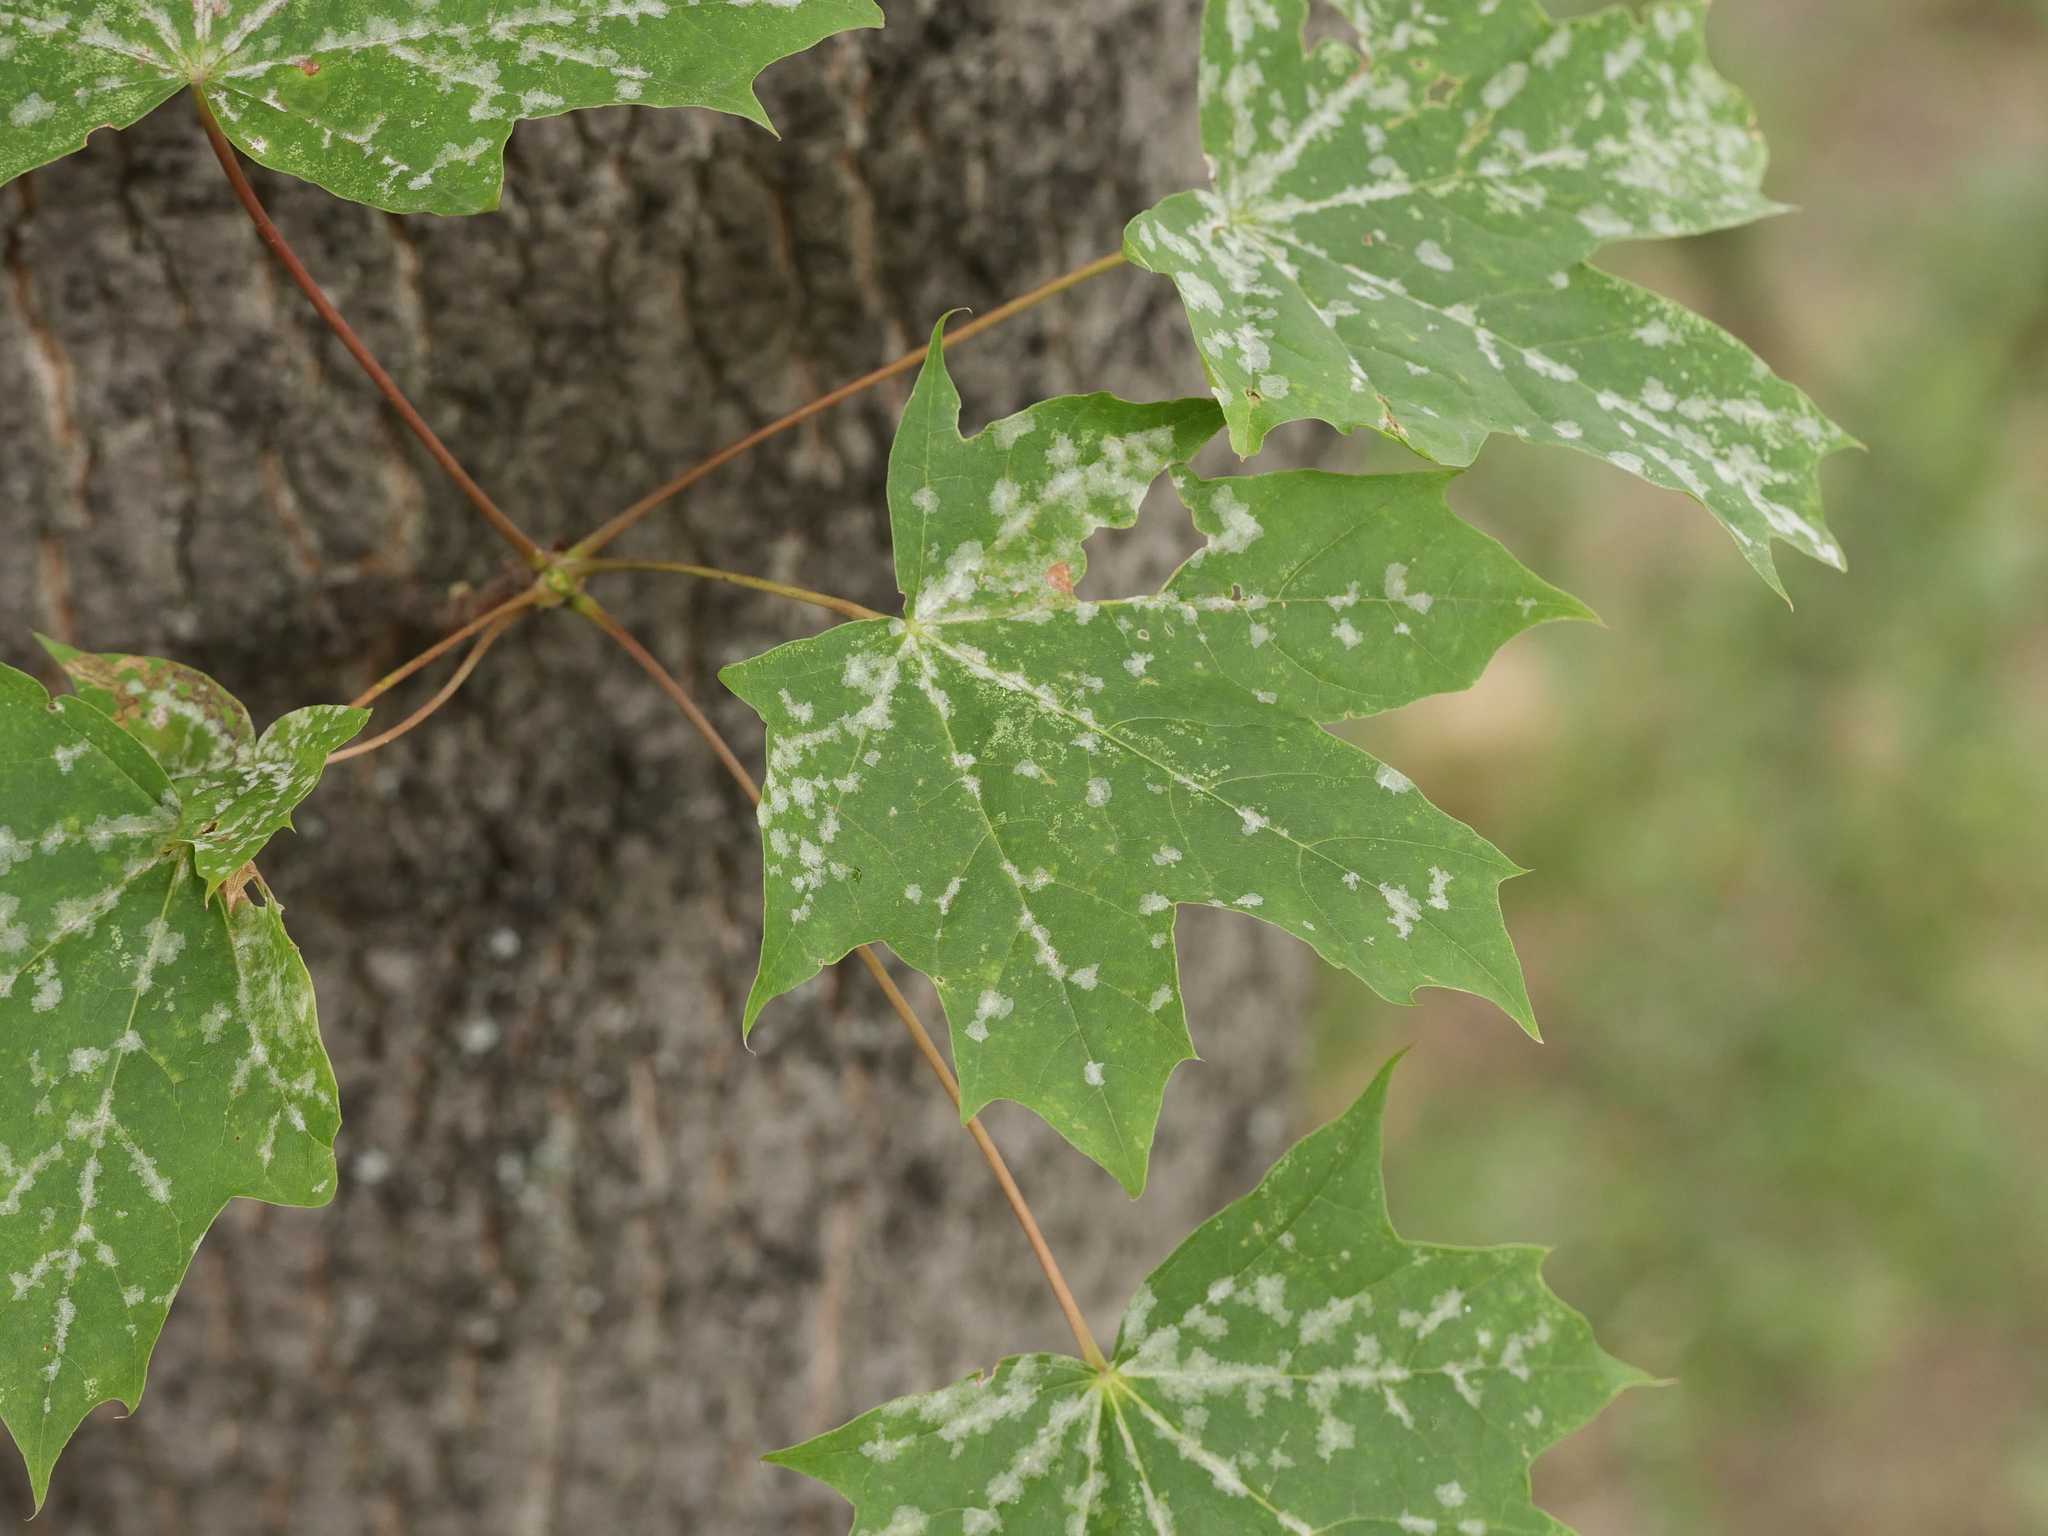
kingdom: Fungi
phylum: Ascomycota
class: Leotiomycetes
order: Helotiales
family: Erysiphaceae
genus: Sawadaea
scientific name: Sawadaea tulasnei
